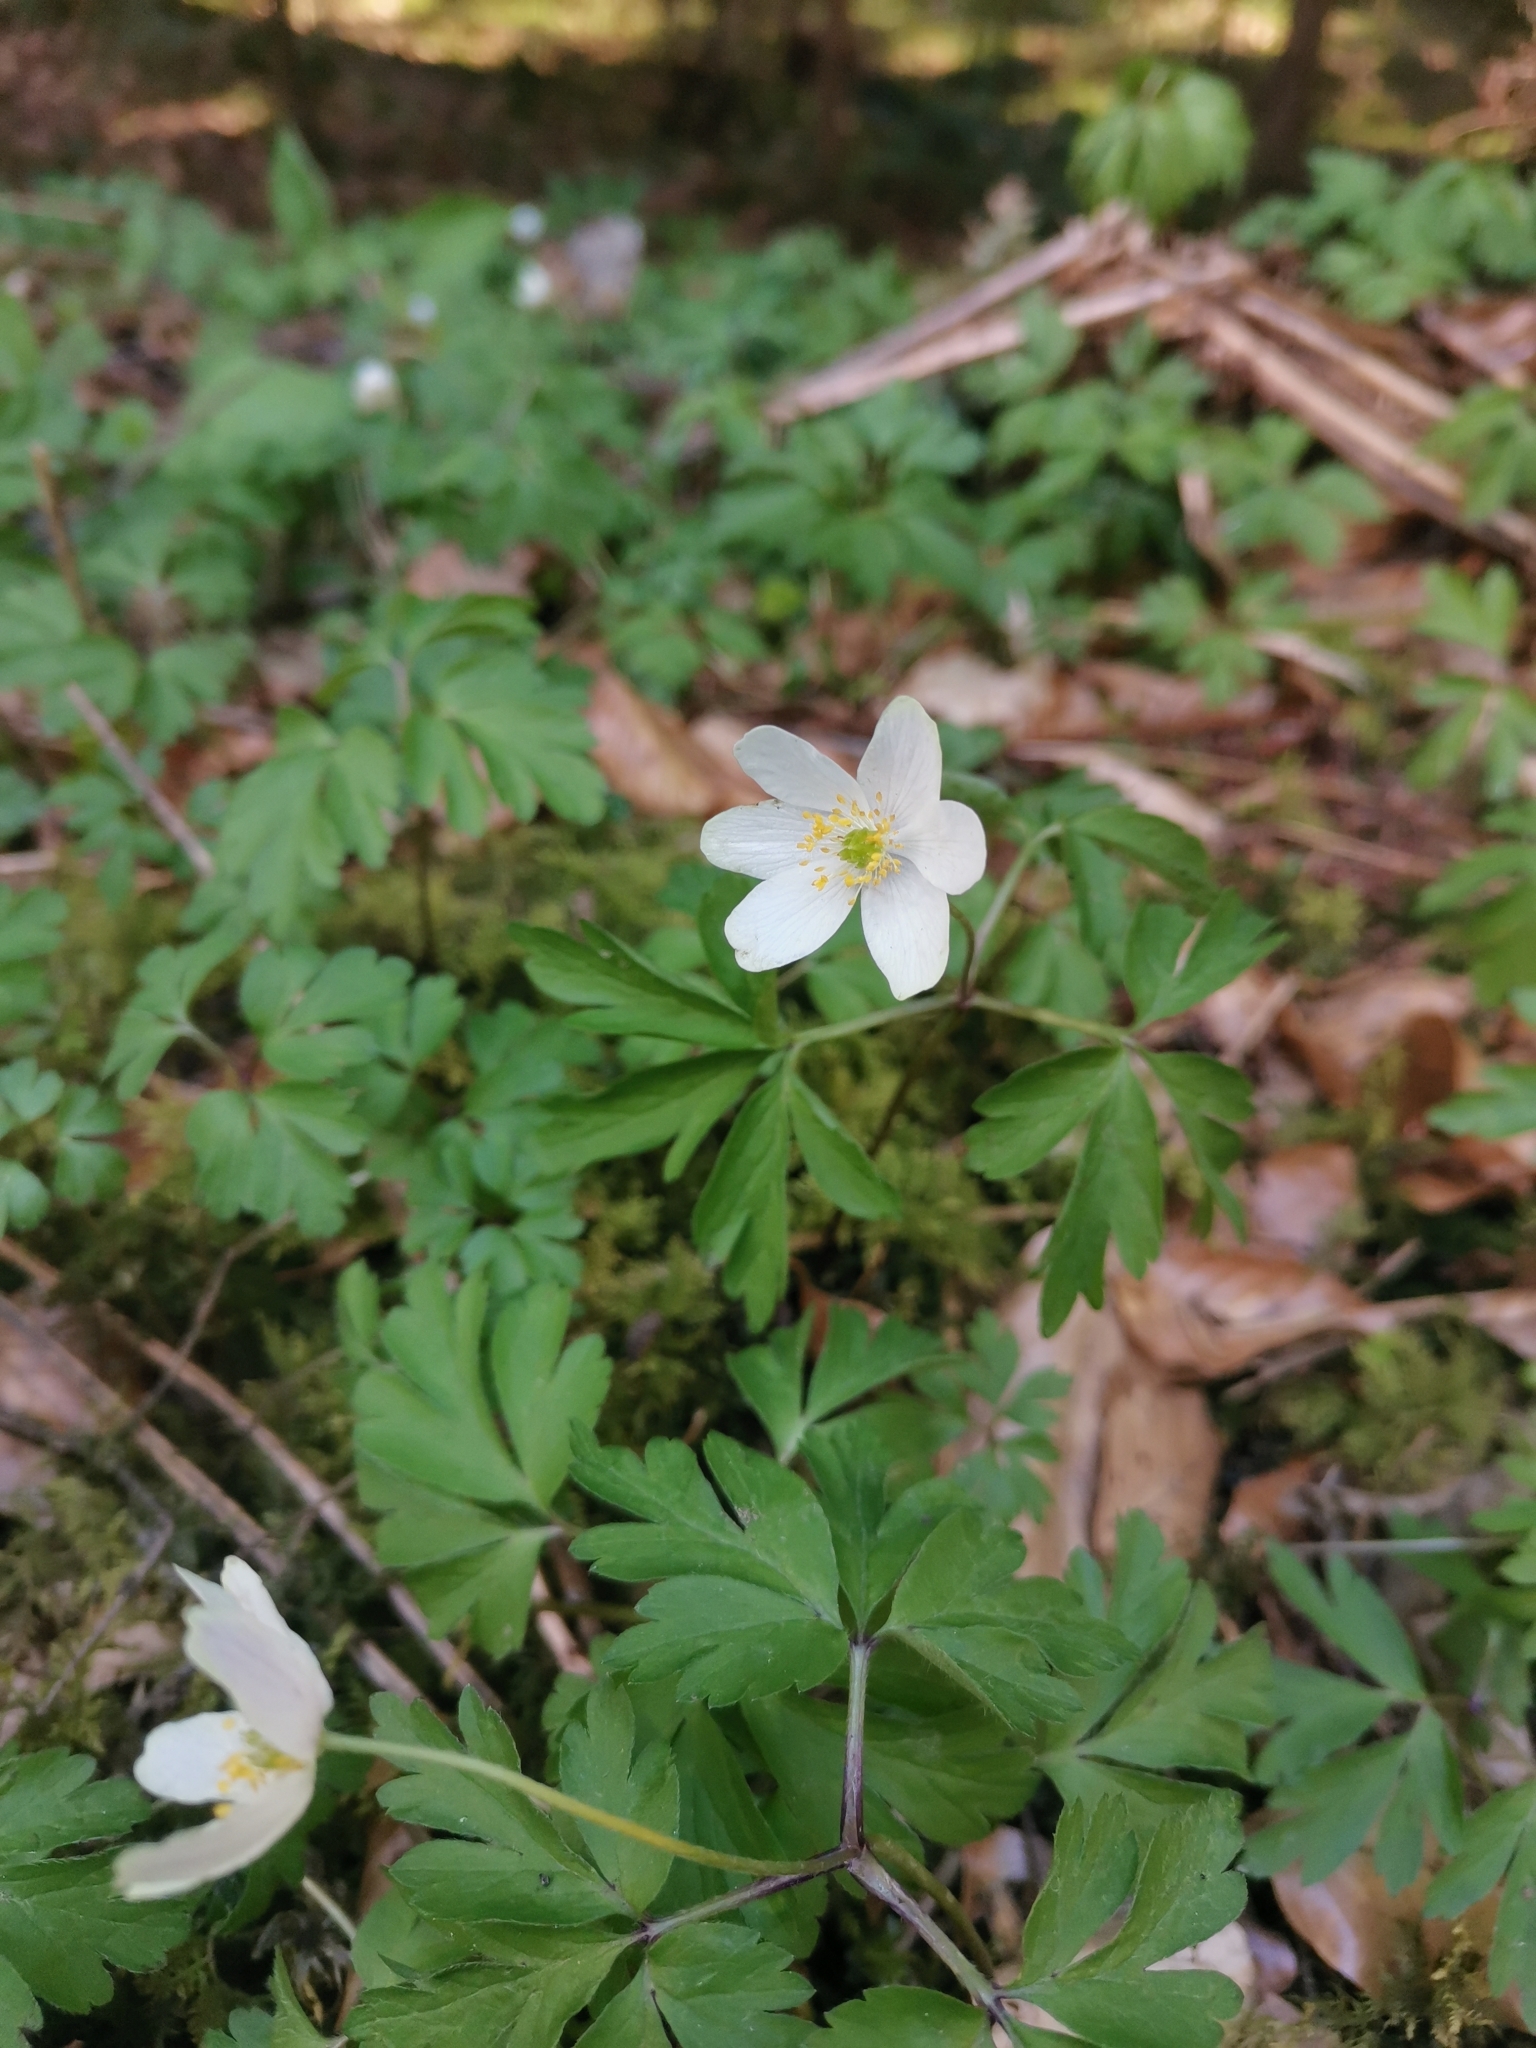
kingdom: Plantae
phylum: Tracheophyta
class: Magnoliopsida
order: Ranunculales
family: Ranunculaceae
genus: Anemone
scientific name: Anemone nemorosa
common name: Wood anemone
